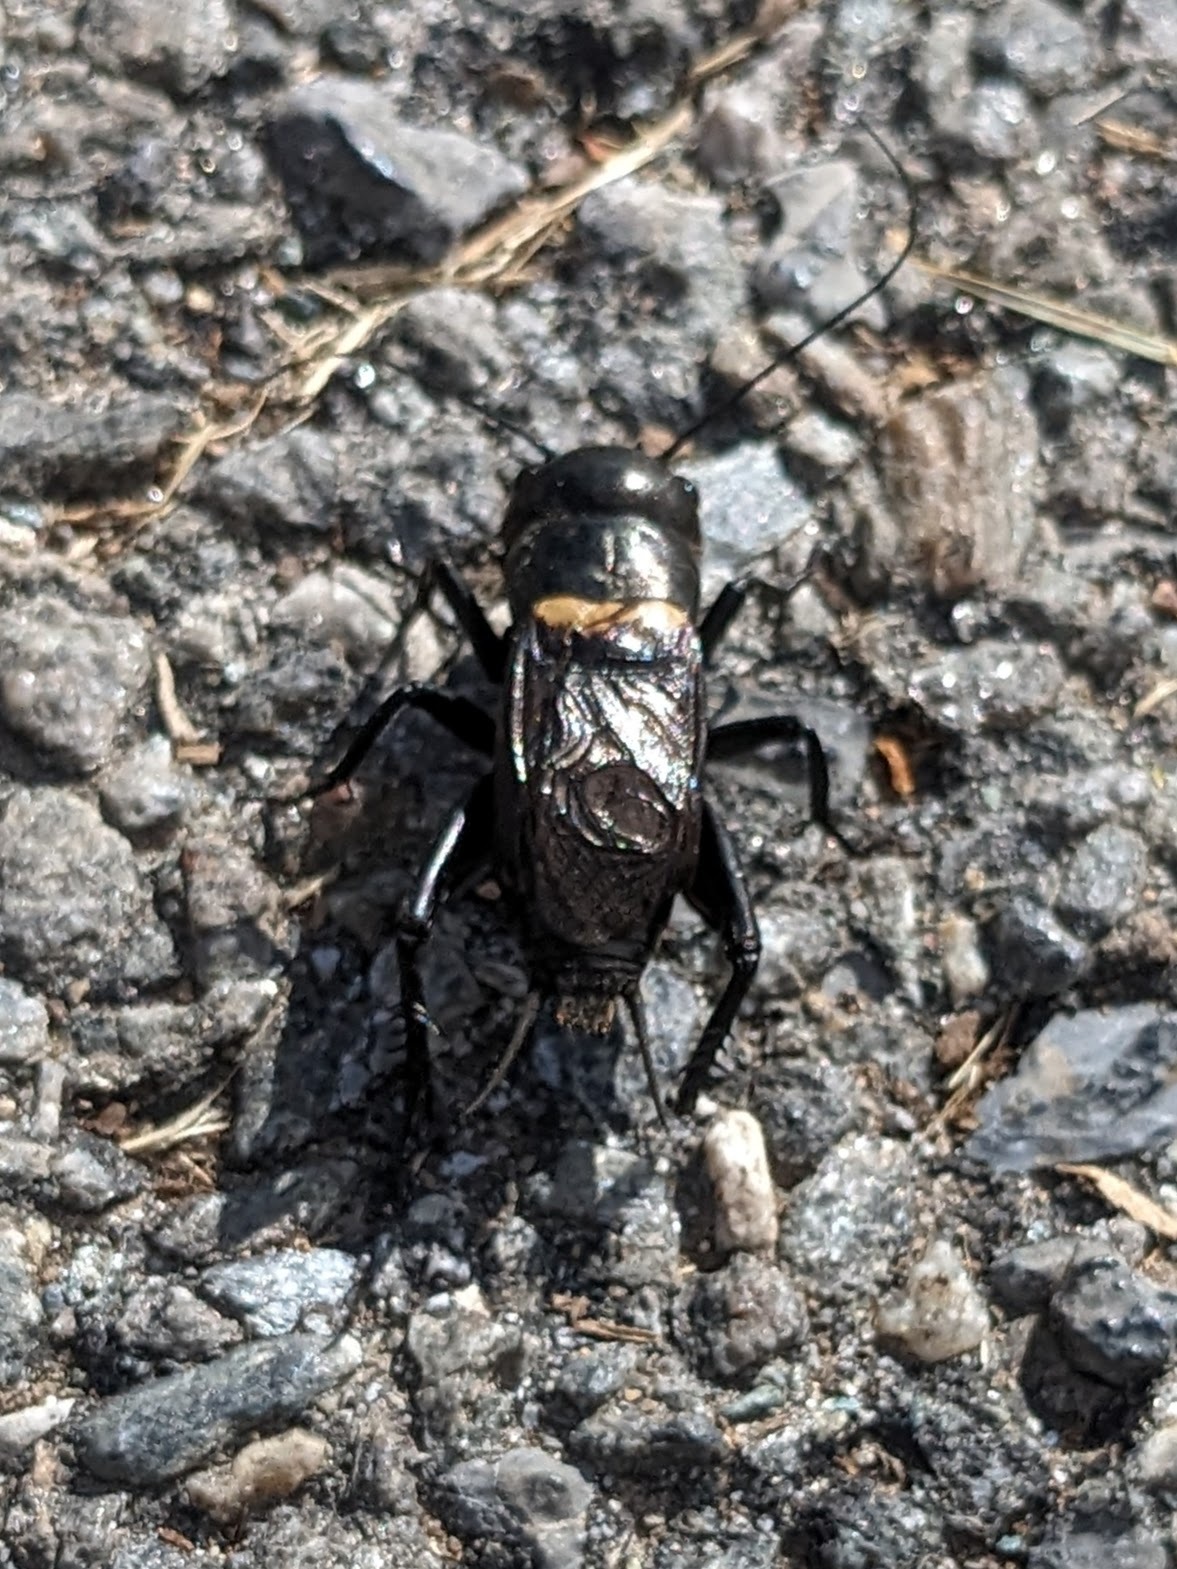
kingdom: Animalia
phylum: Arthropoda
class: Insecta
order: Orthoptera
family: Gryllidae
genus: Gryllus
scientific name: Gryllus campestris
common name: Field cricket
